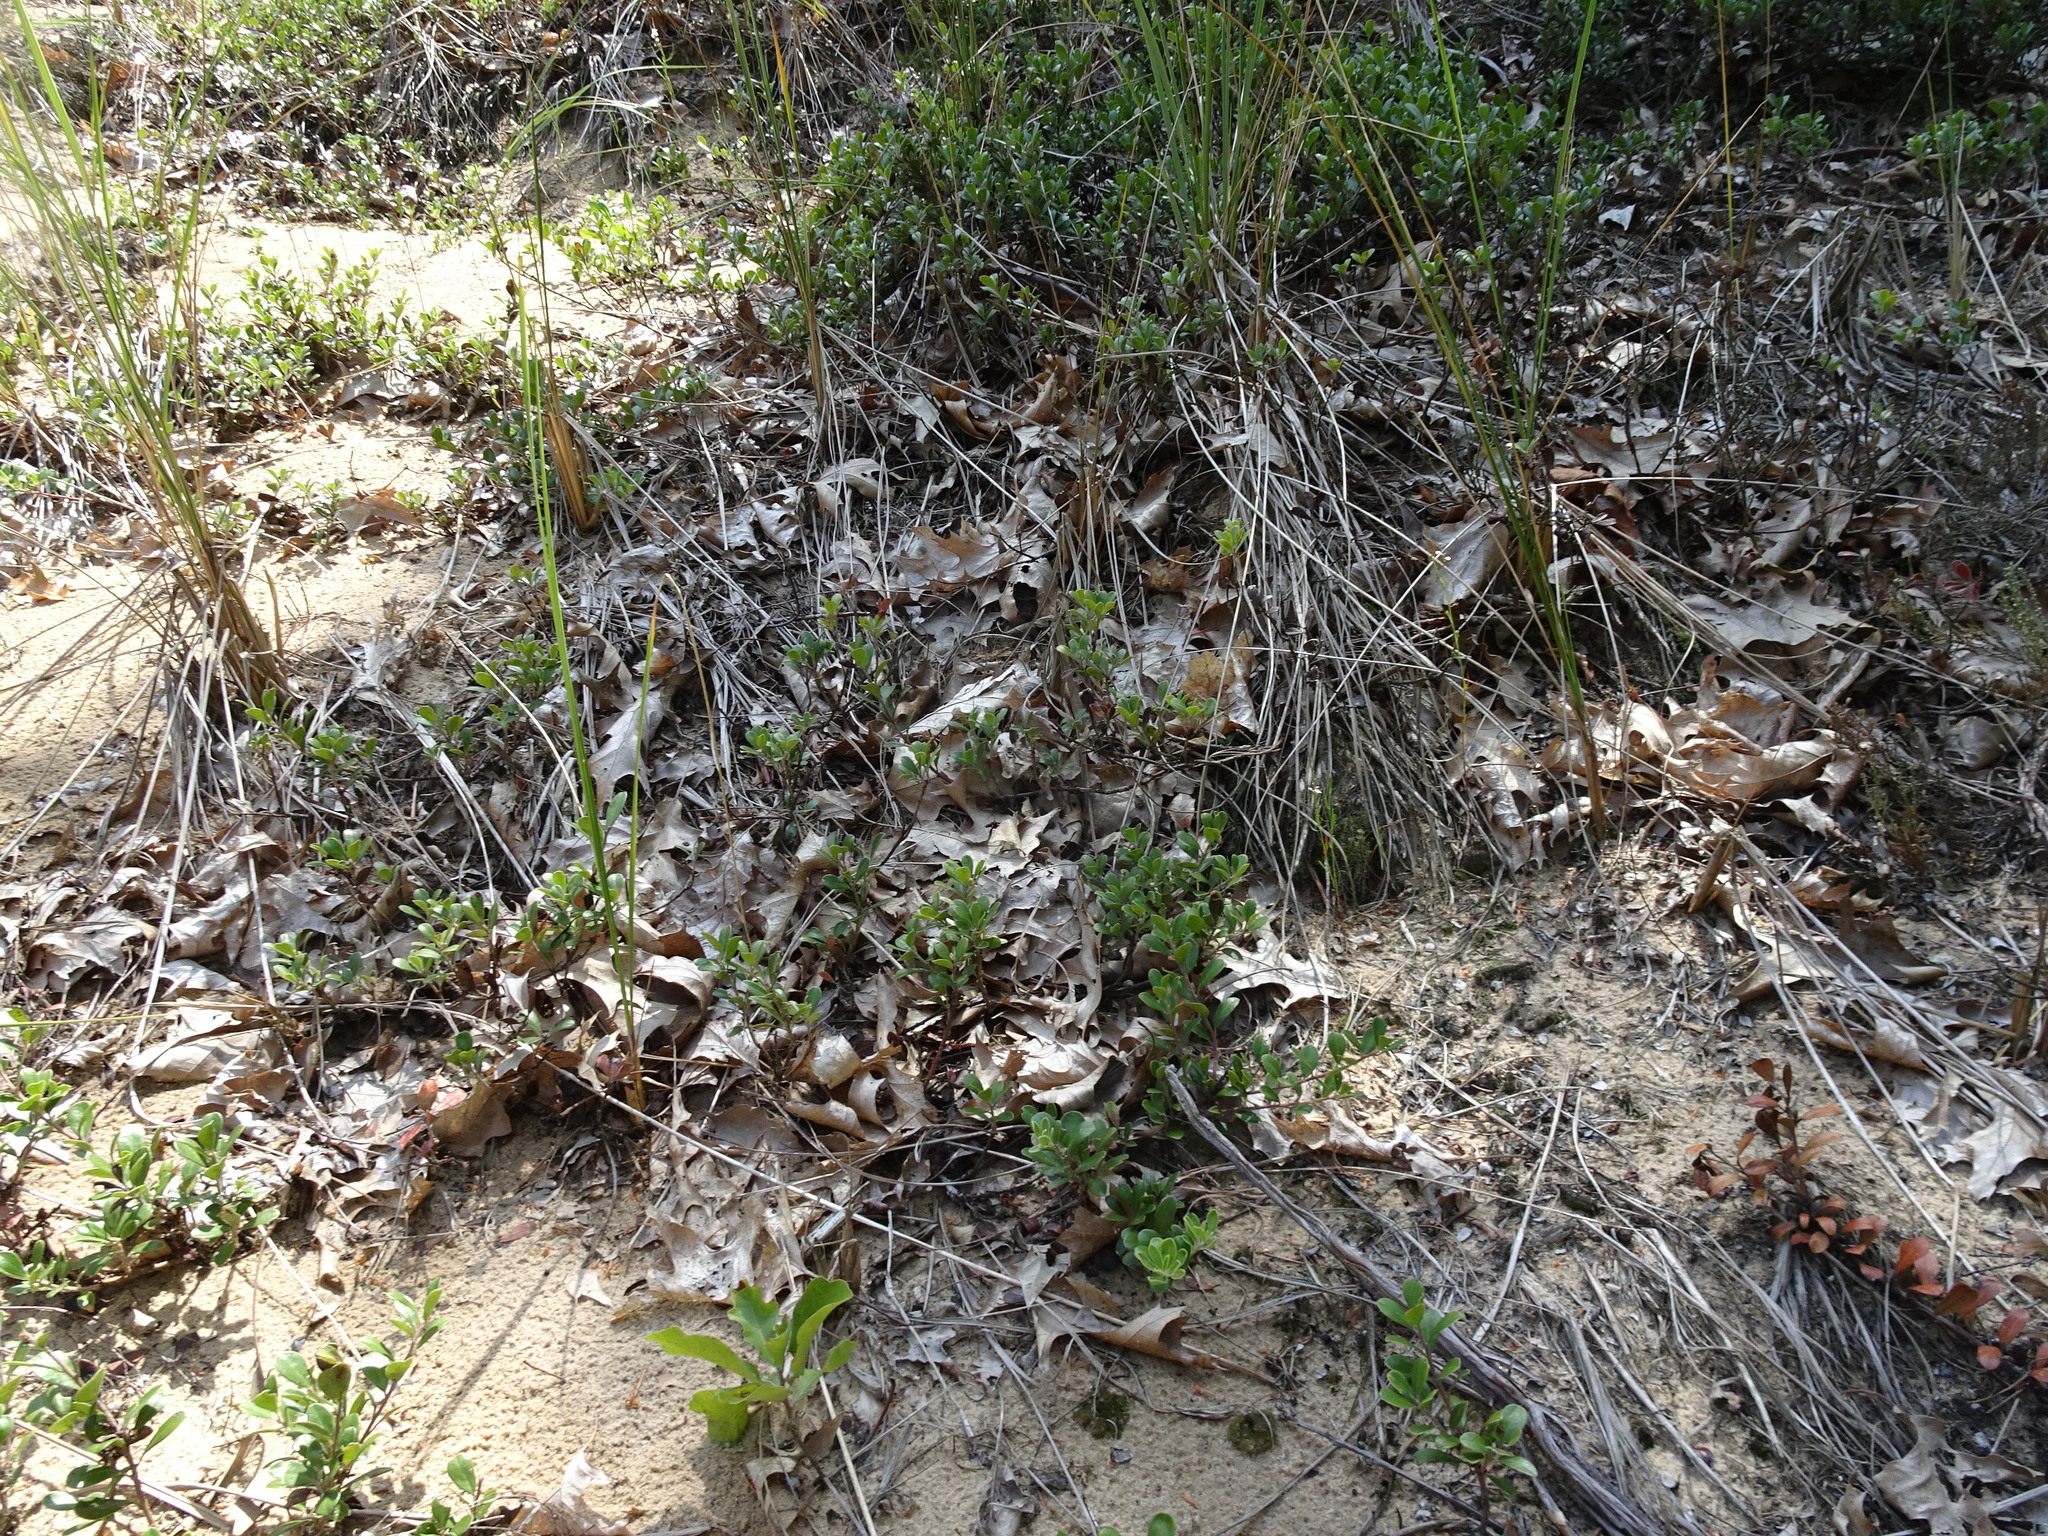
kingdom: Plantae
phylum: Tracheophyta
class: Magnoliopsida
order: Ericales
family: Ericaceae
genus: Arctostaphylos
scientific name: Arctostaphylos uva-ursi
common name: Bearberry
